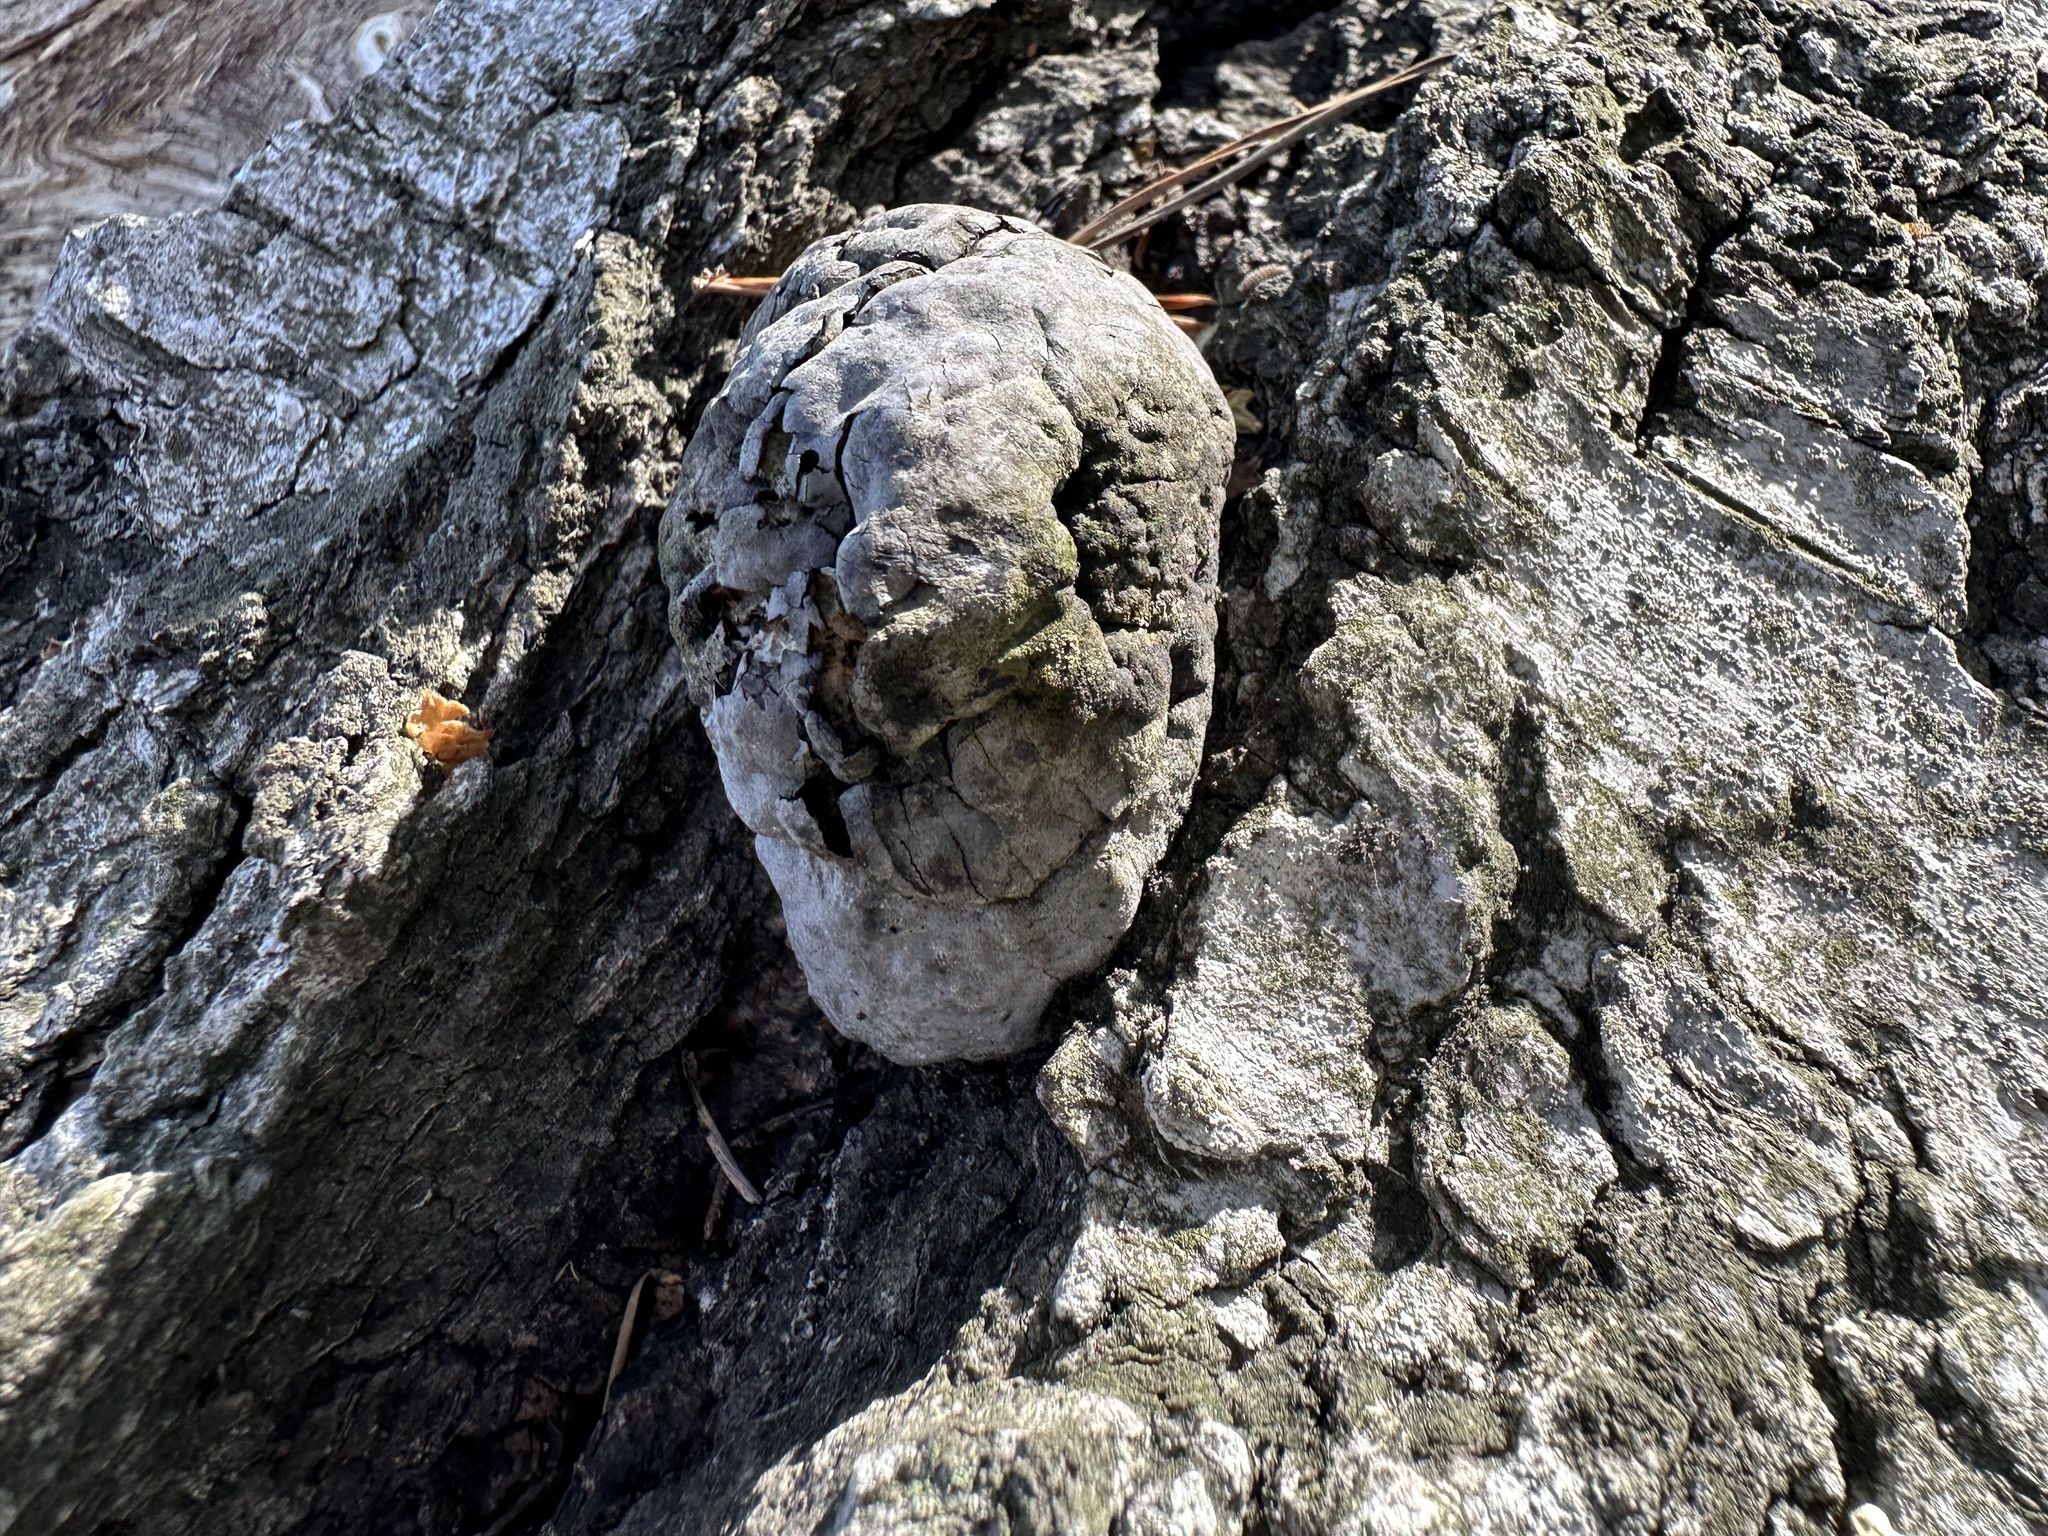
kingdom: Fungi
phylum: Basidiomycota
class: Agaricomycetes
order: Polyporales
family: Polyporaceae
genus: Fomes
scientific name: Fomes fomentarius
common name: Hoof fungus
